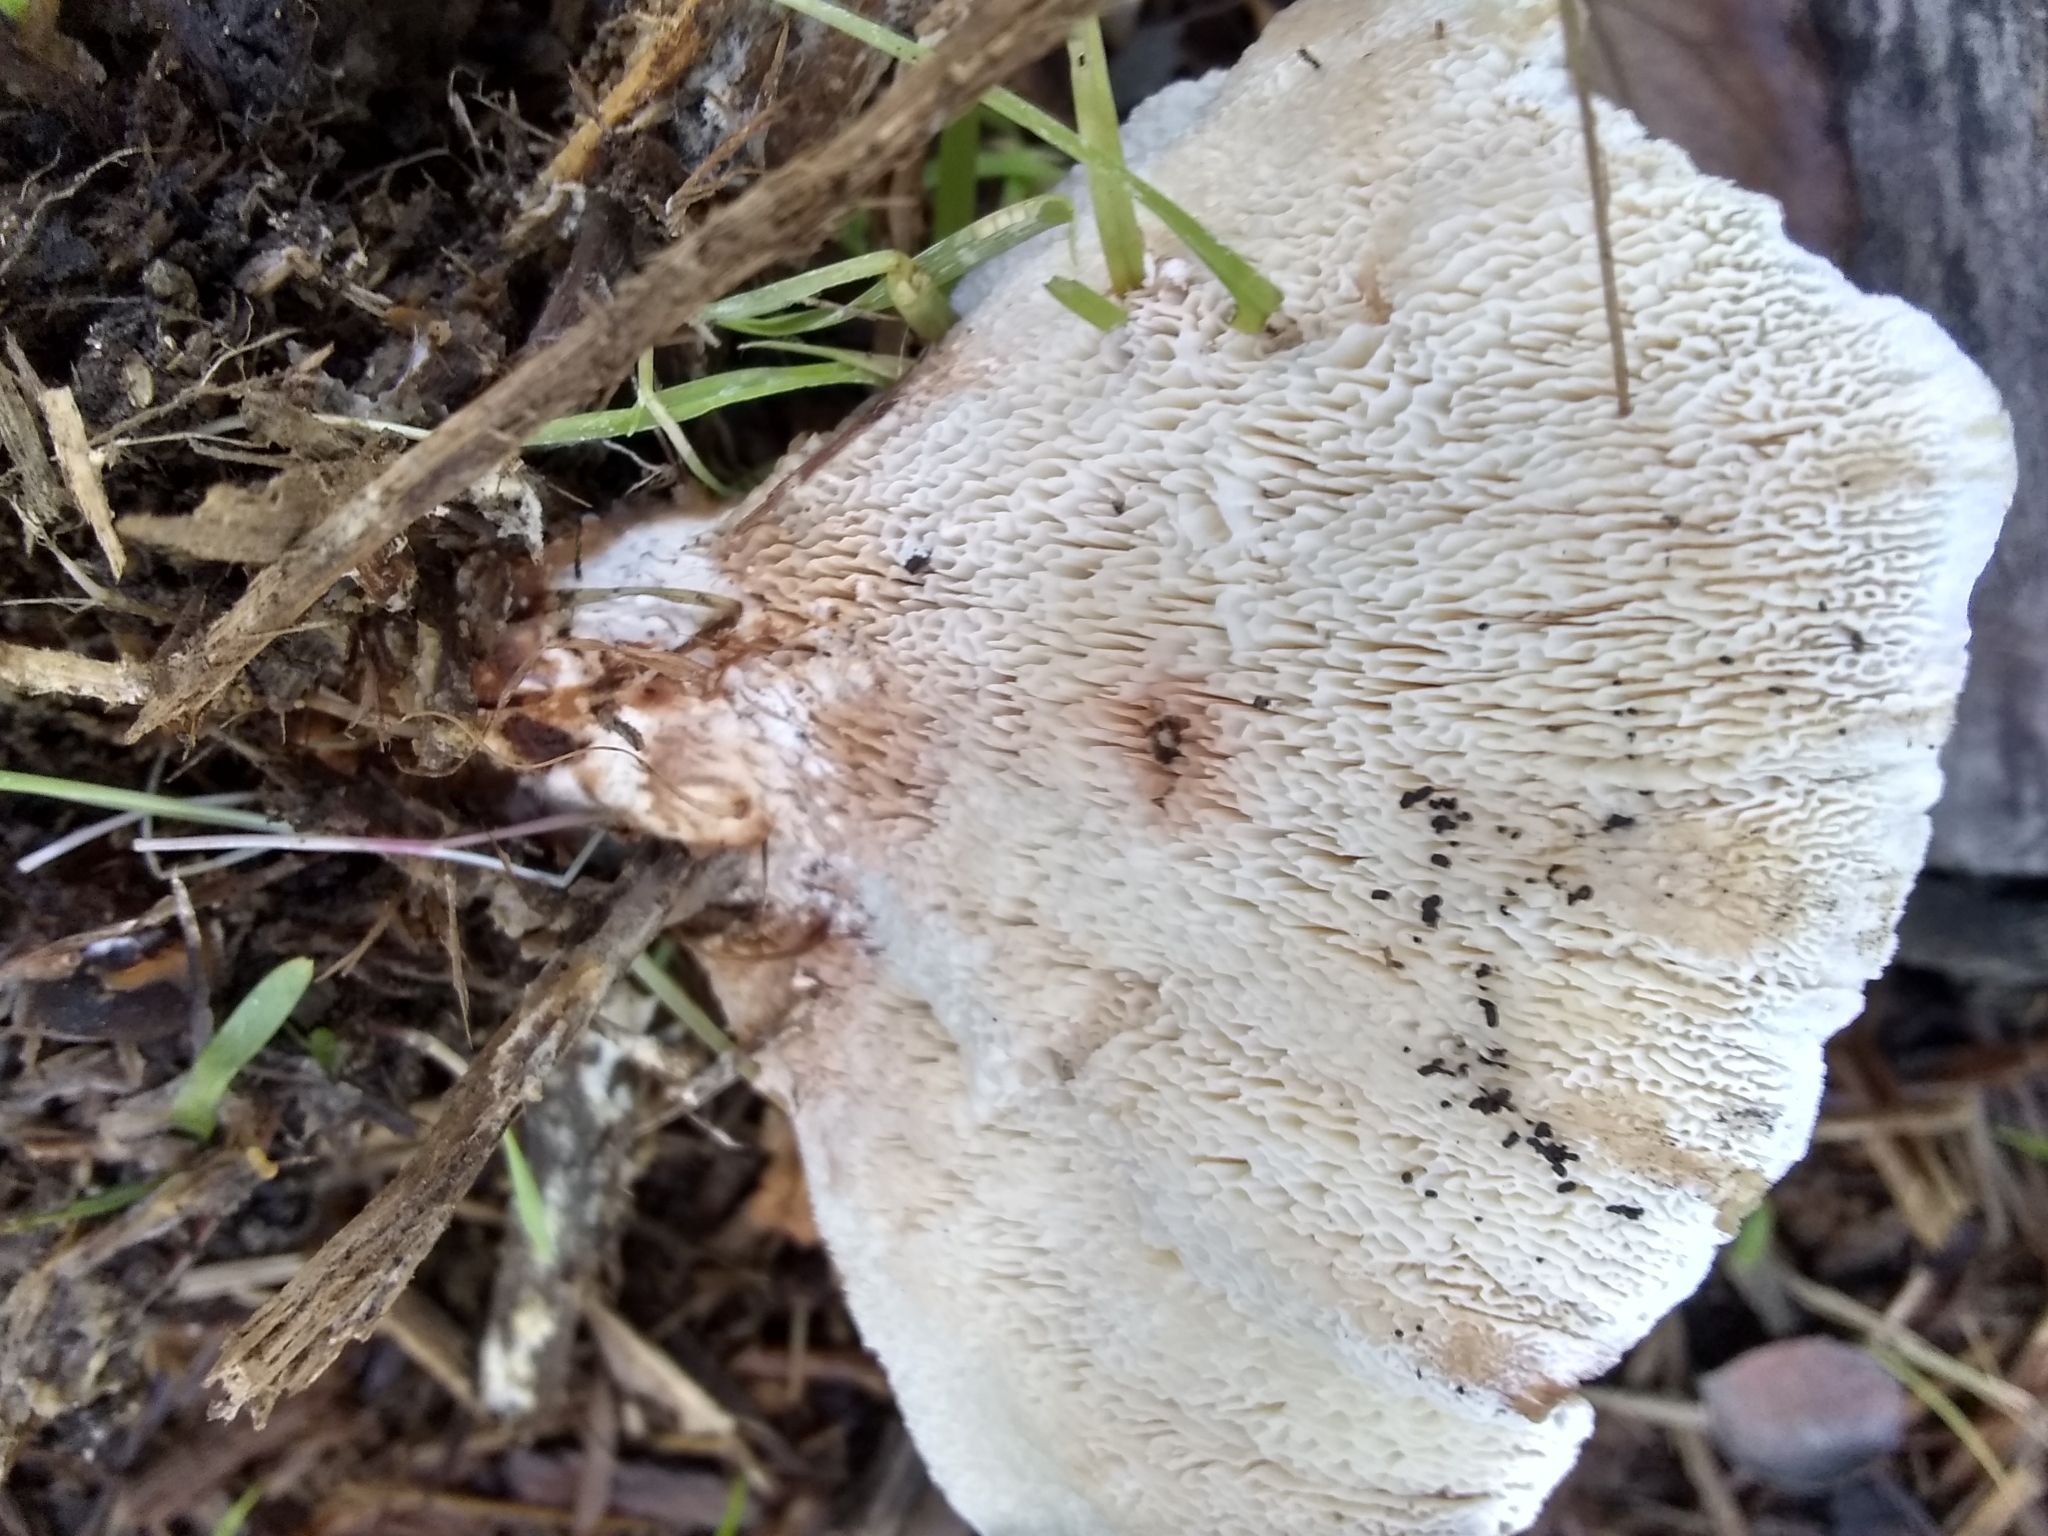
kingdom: Fungi
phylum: Basidiomycota
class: Agaricomycetes
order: Polyporales
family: Podoscyphaceae
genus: Abortiporus
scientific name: Abortiporus biennis
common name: Blushing rosette
